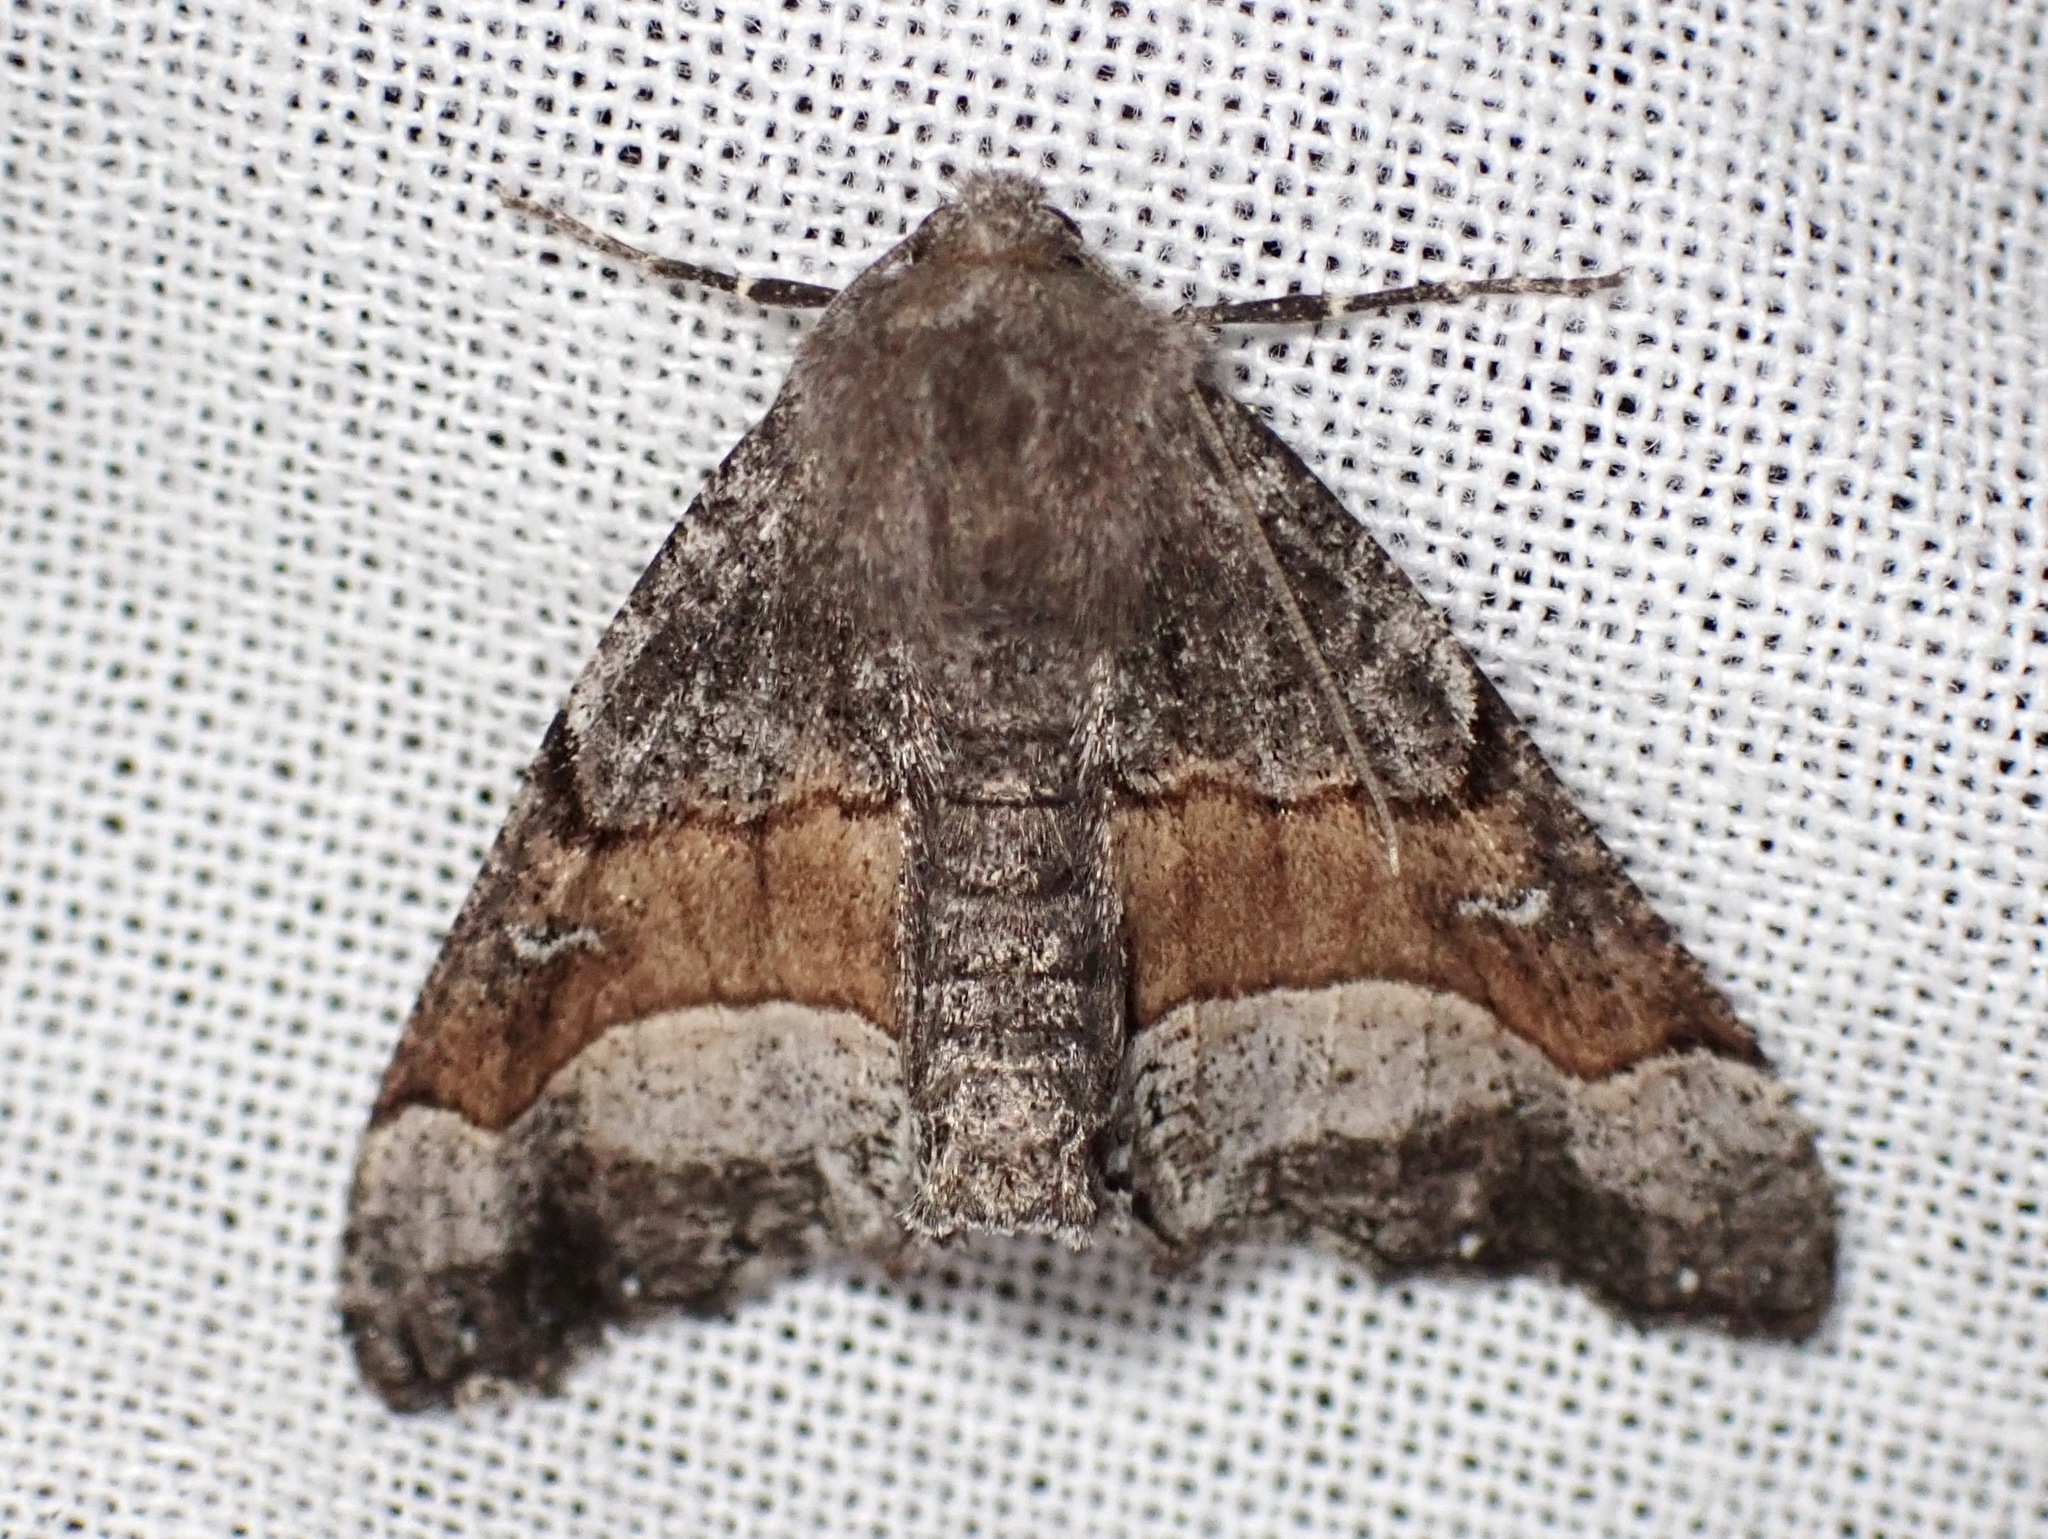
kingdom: Animalia
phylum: Arthropoda
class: Insecta
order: Lepidoptera
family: Geometridae
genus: Pero
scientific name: Pero behrensaria
